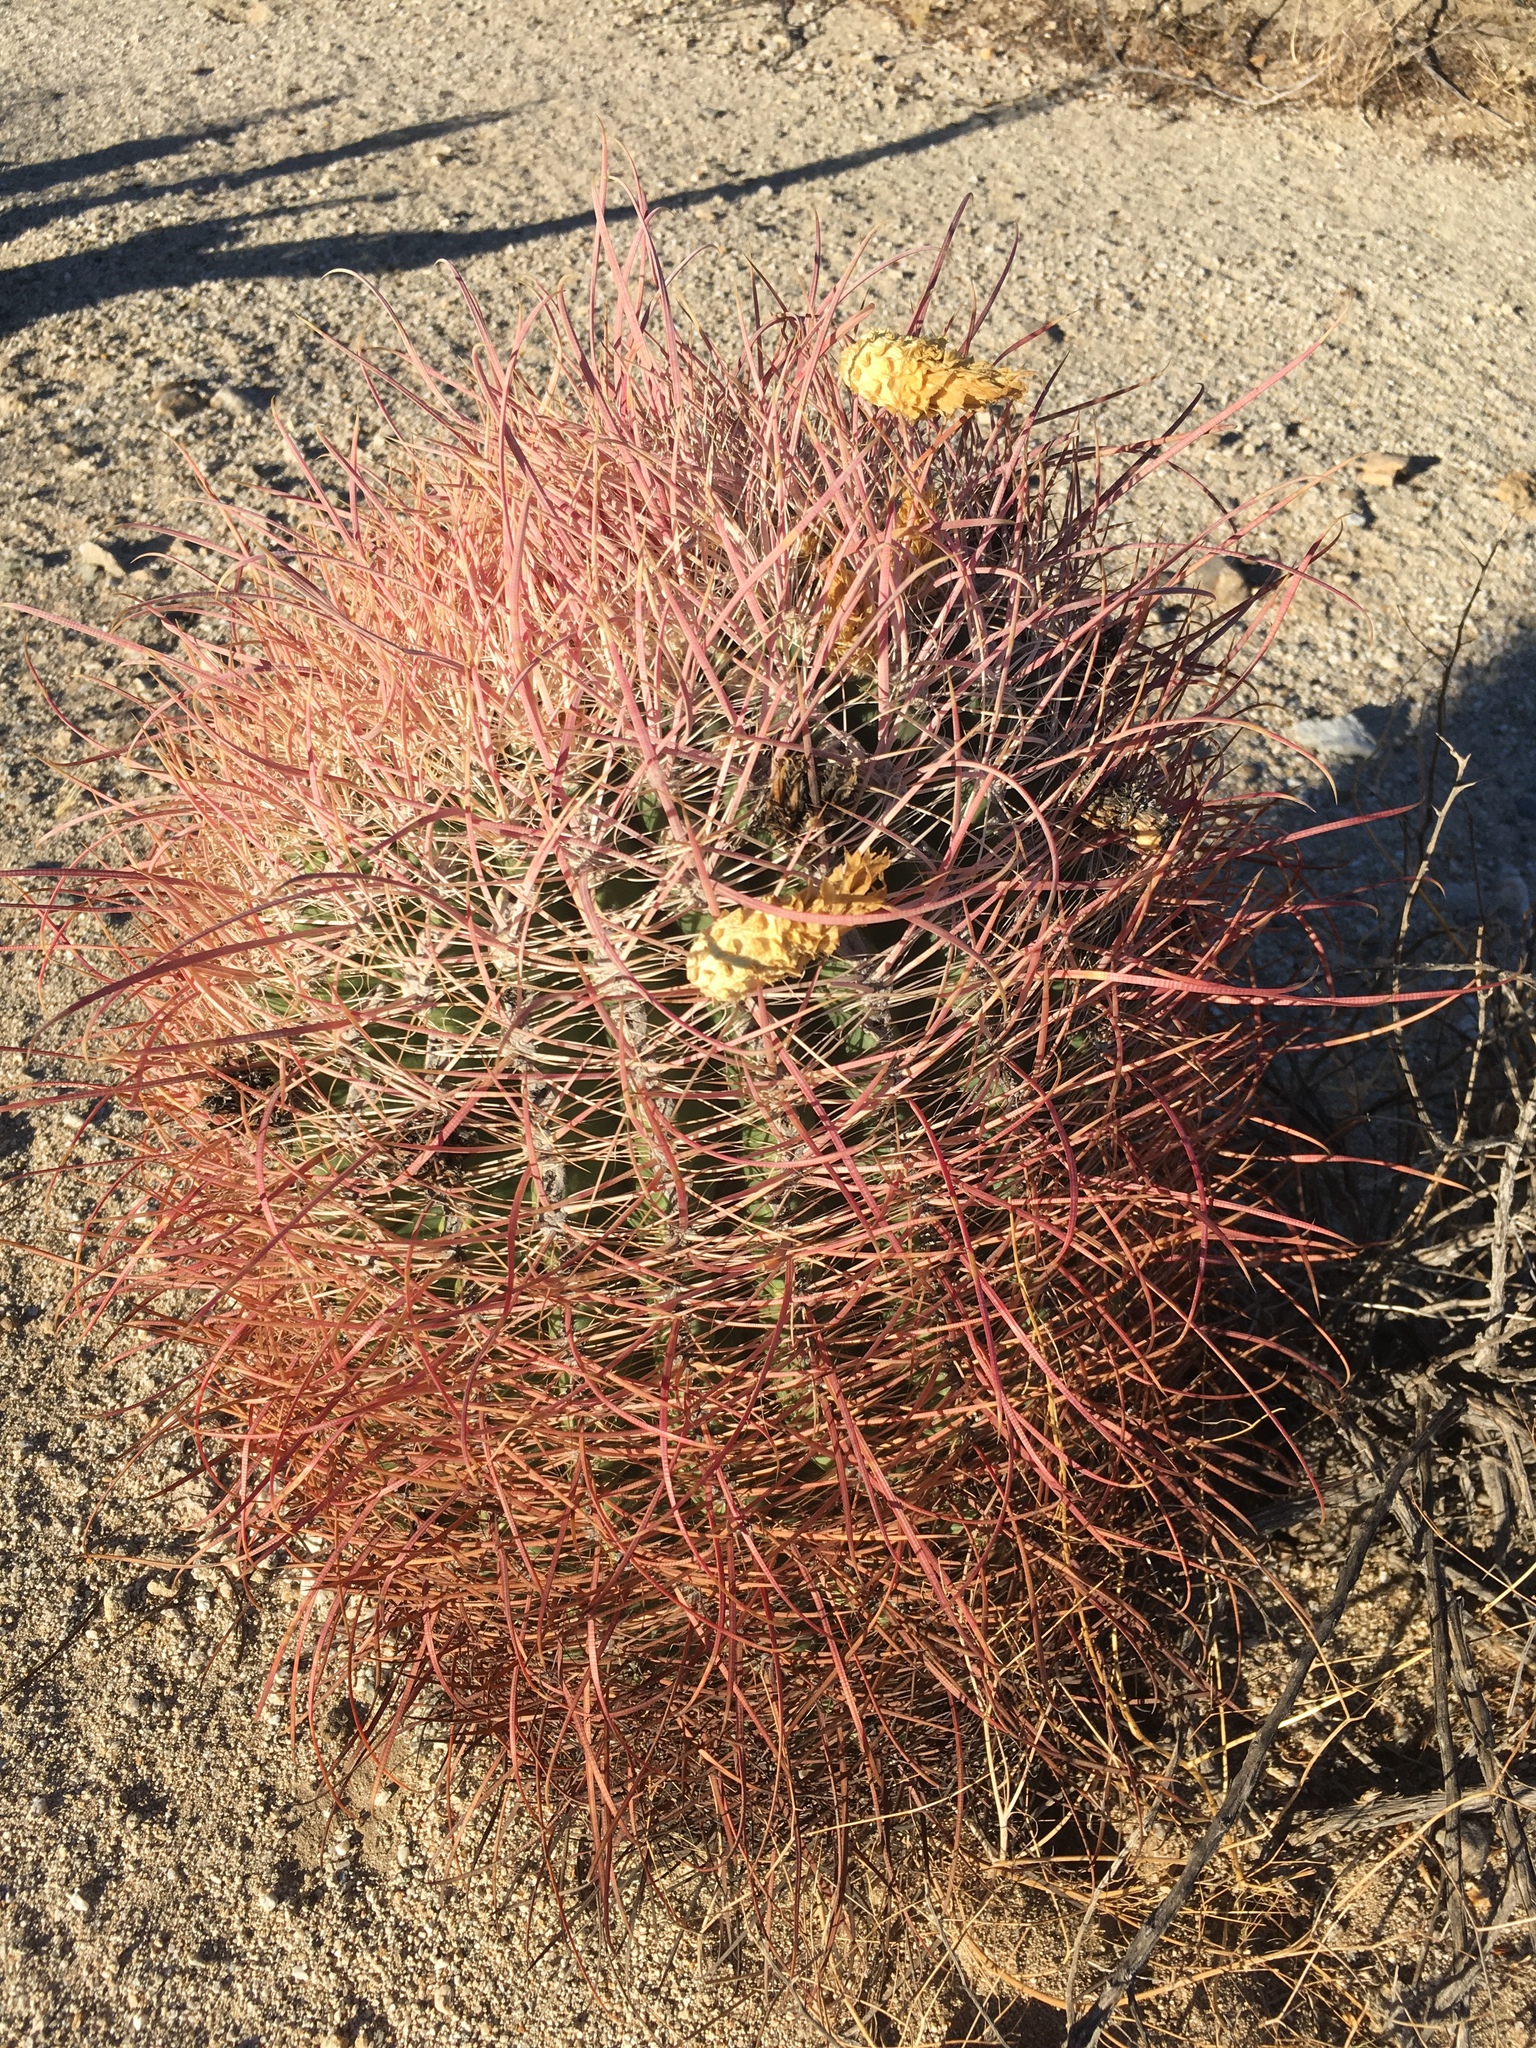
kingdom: Plantae
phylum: Tracheophyta
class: Magnoliopsida
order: Caryophyllales
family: Cactaceae
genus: Ferocactus
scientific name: Ferocactus cylindraceus
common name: California barrel cactus
